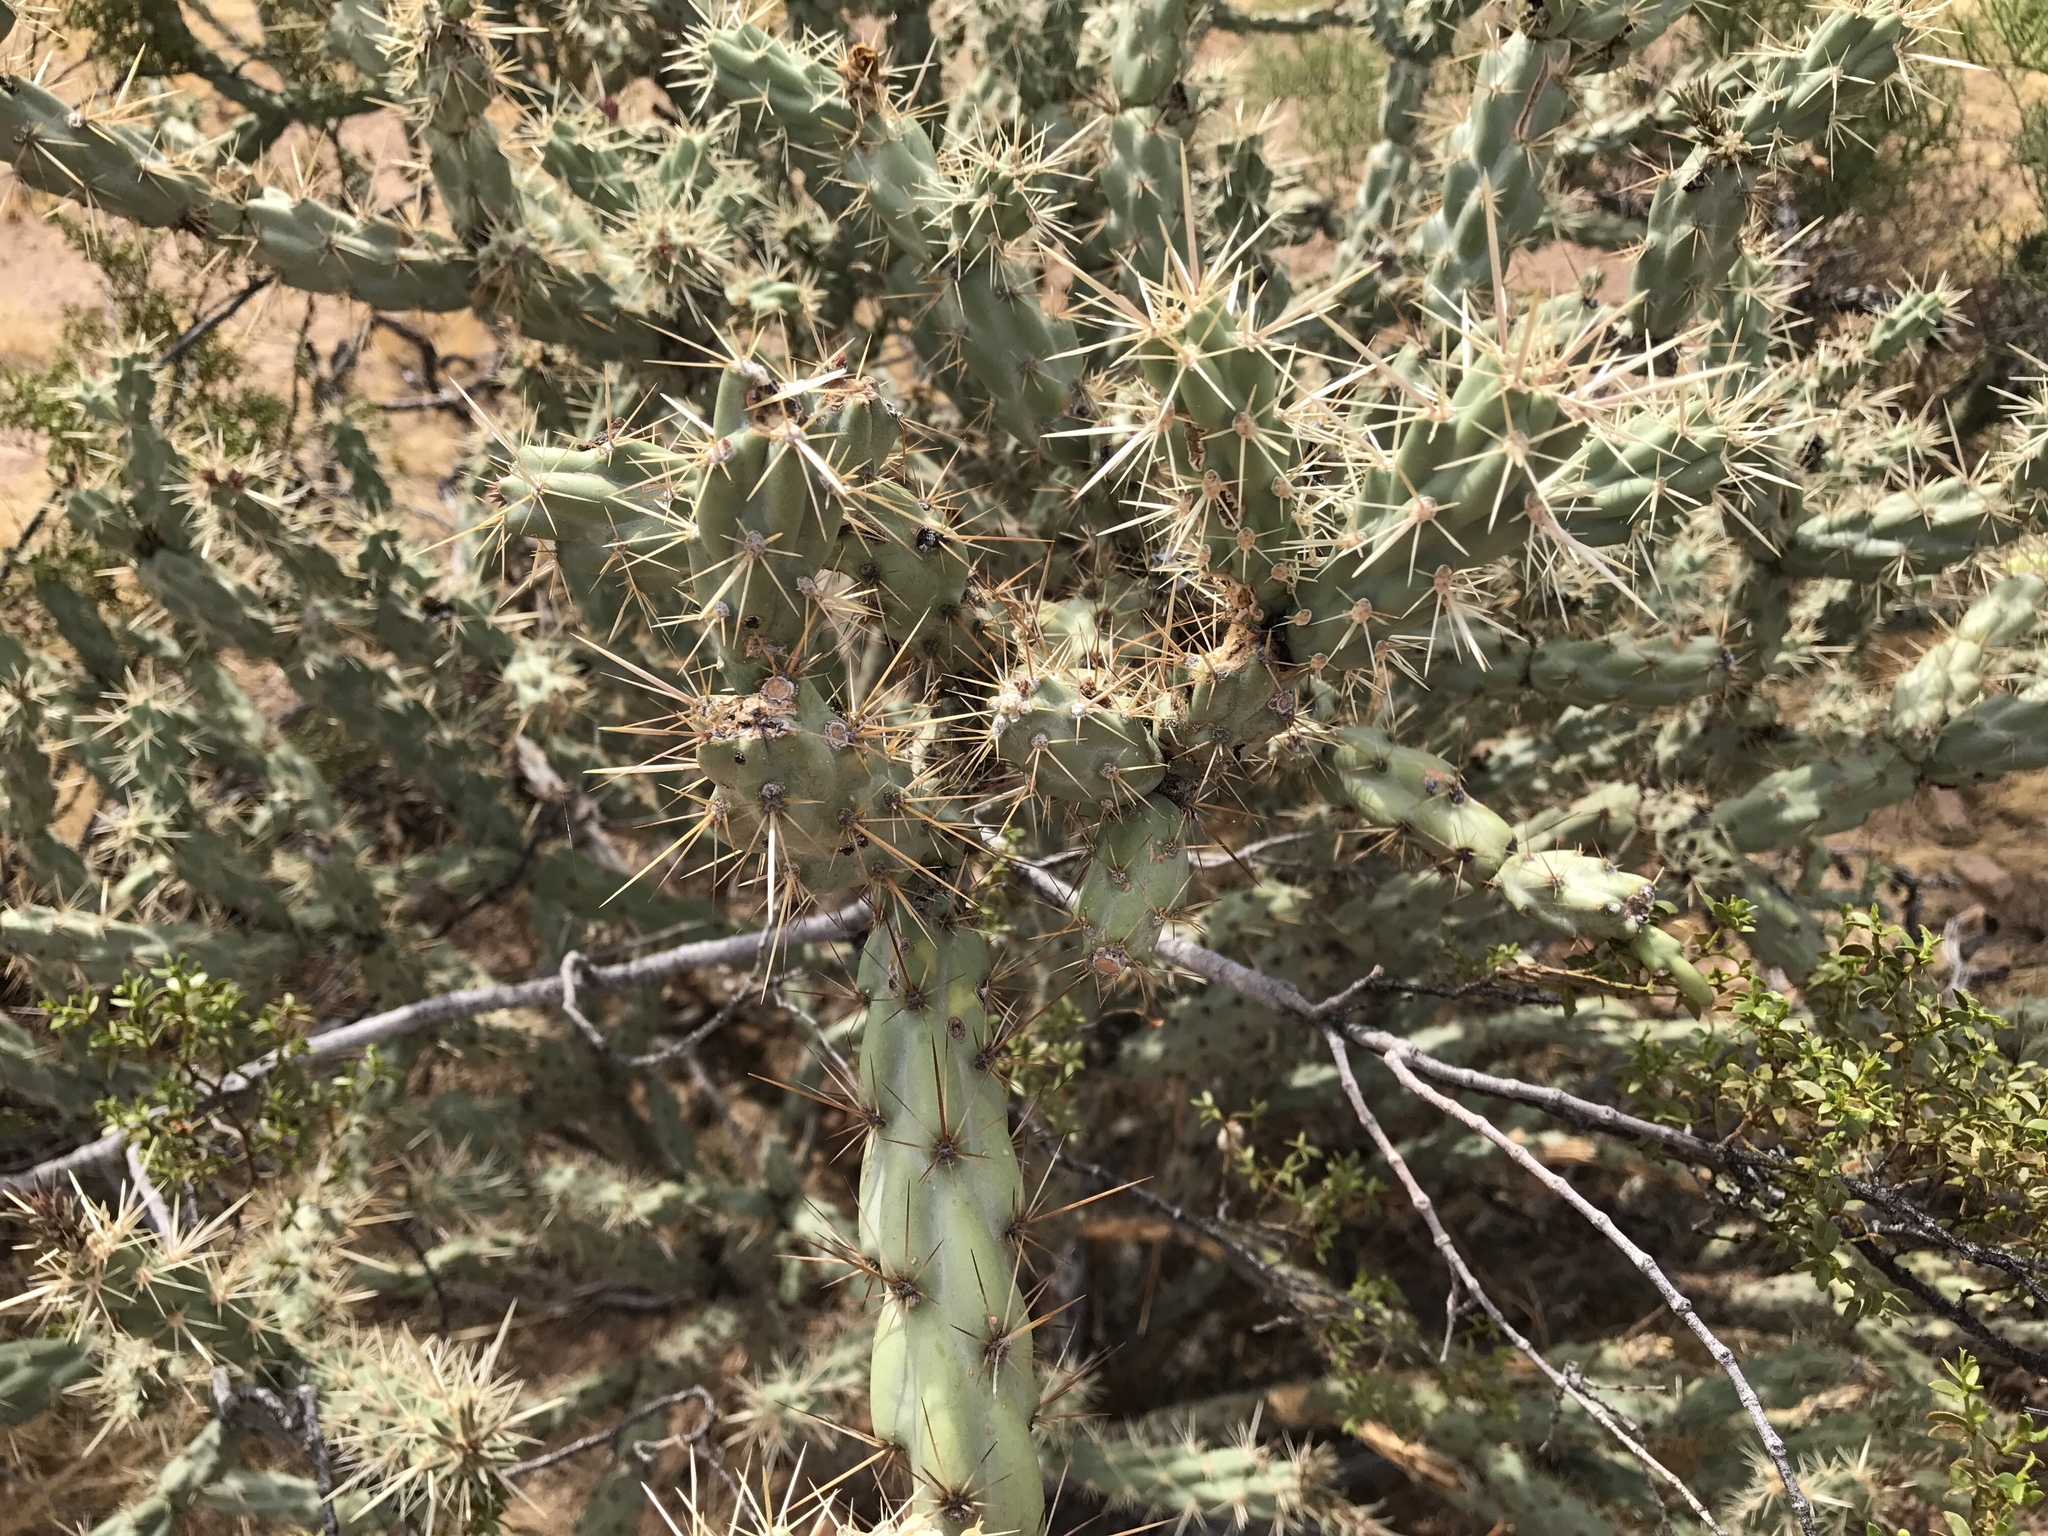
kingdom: Plantae
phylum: Tracheophyta
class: Magnoliopsida
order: Caryophyllales
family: Cactaceae
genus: Cylindropuntia
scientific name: Cylindropuntia acanthocarpa
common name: Buckhorn cholla
